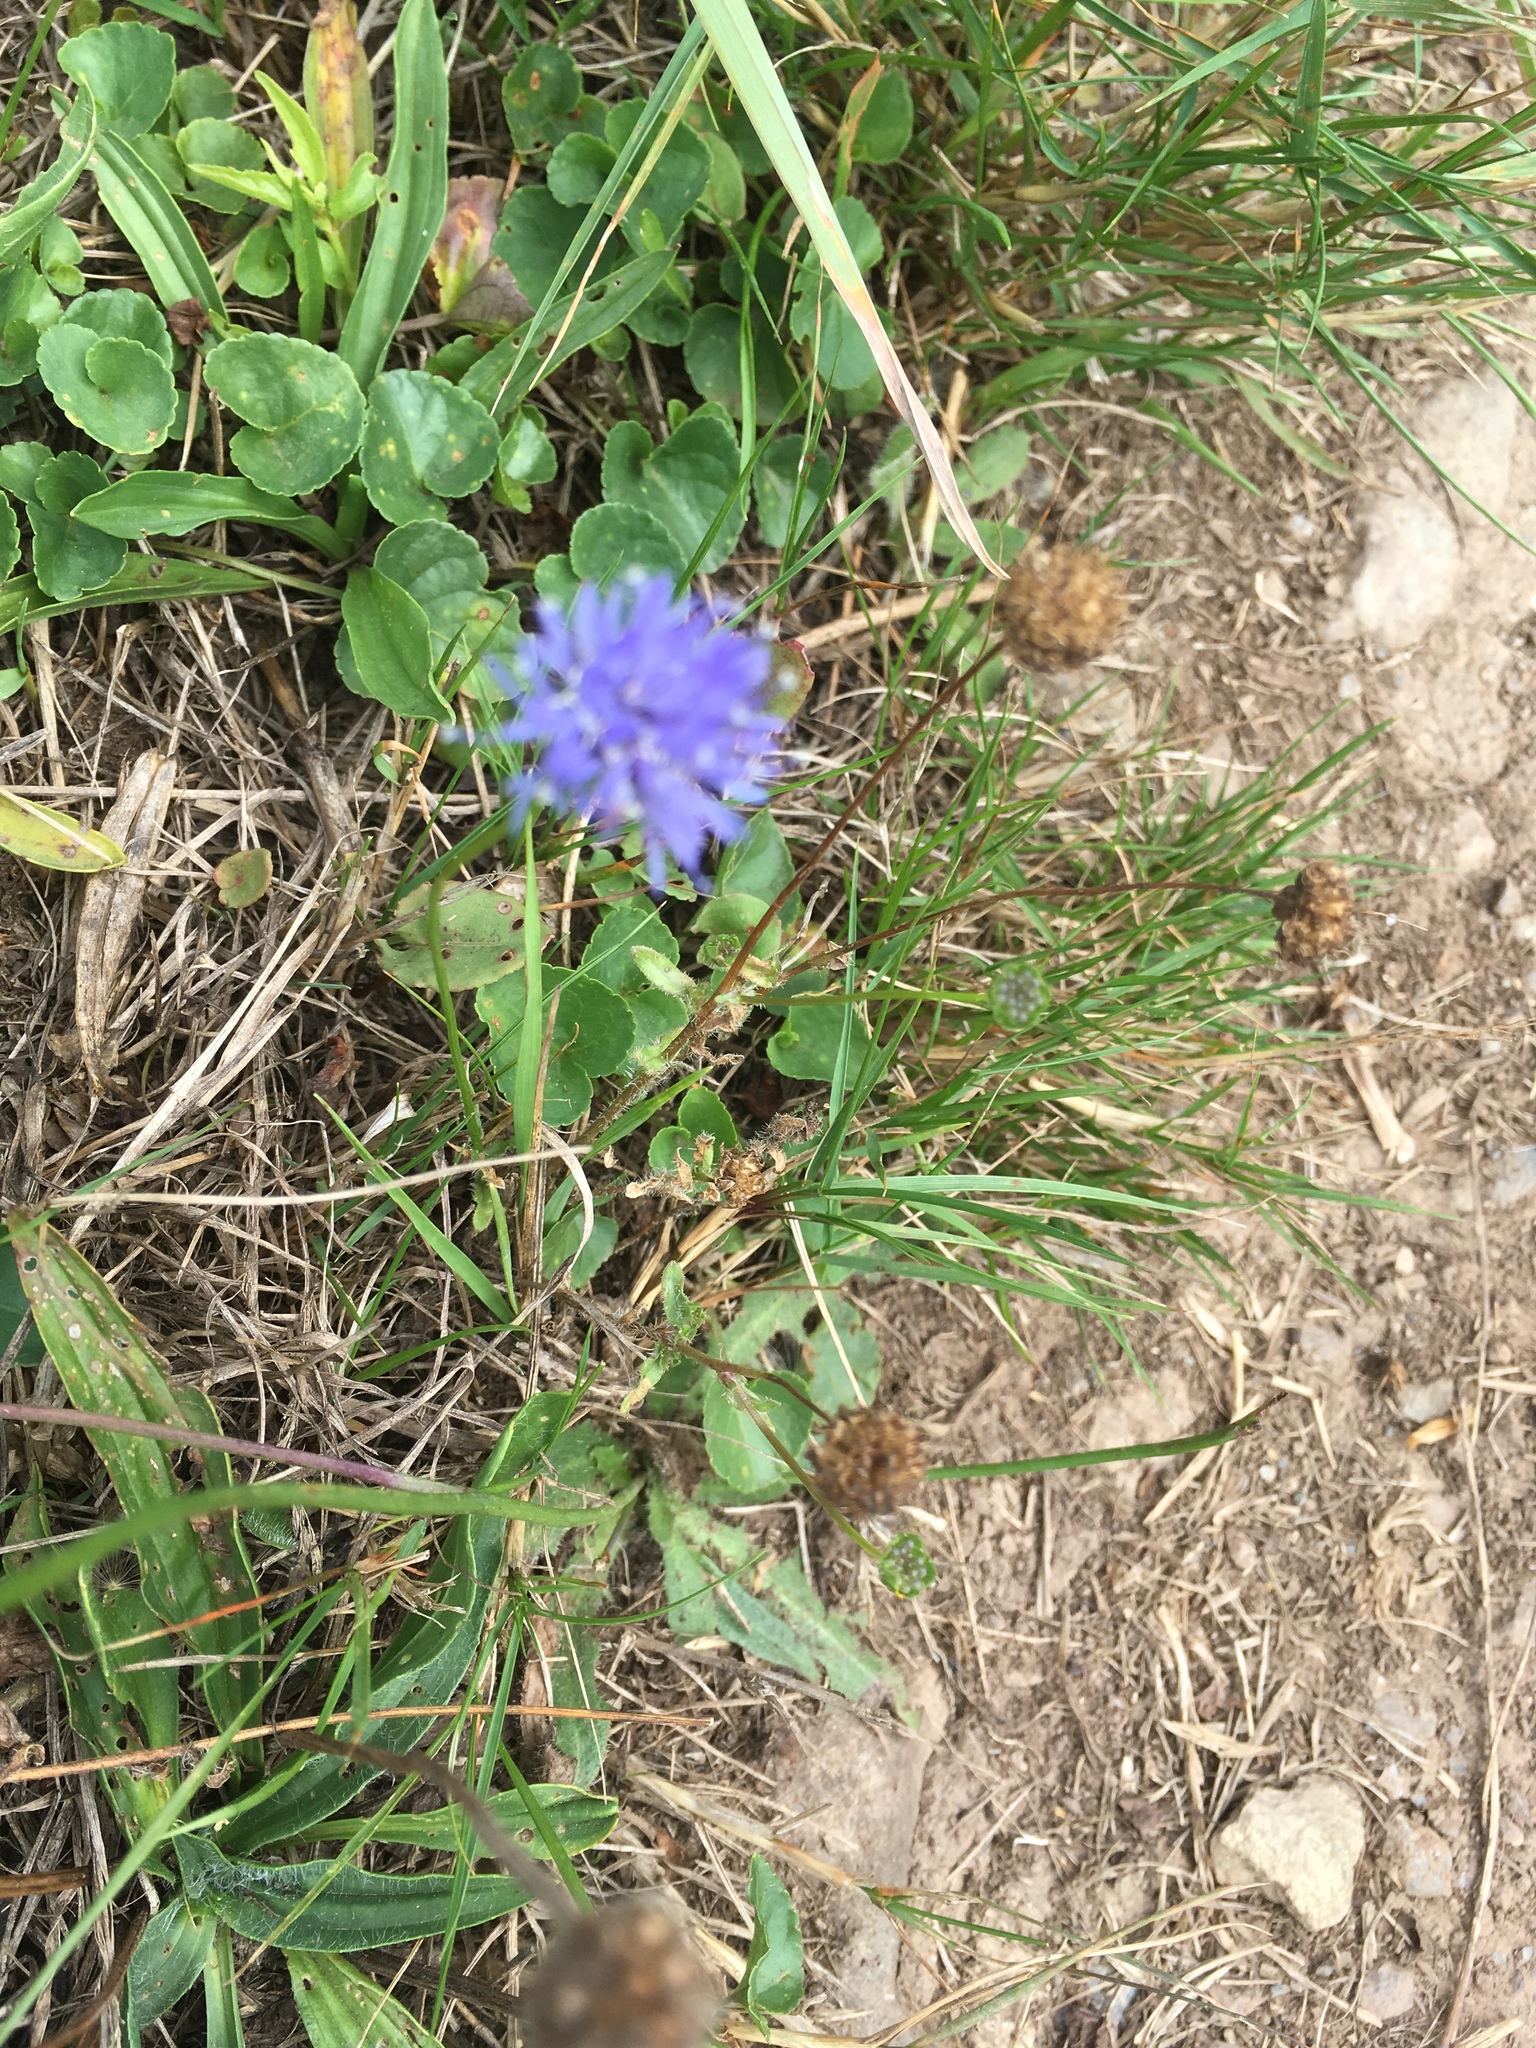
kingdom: Plantae
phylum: Tracheophyta
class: Magnoliopsida
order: Asterales
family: Campanulaceae
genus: Jasione
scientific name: Jasione montana
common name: Sheep's-bit
